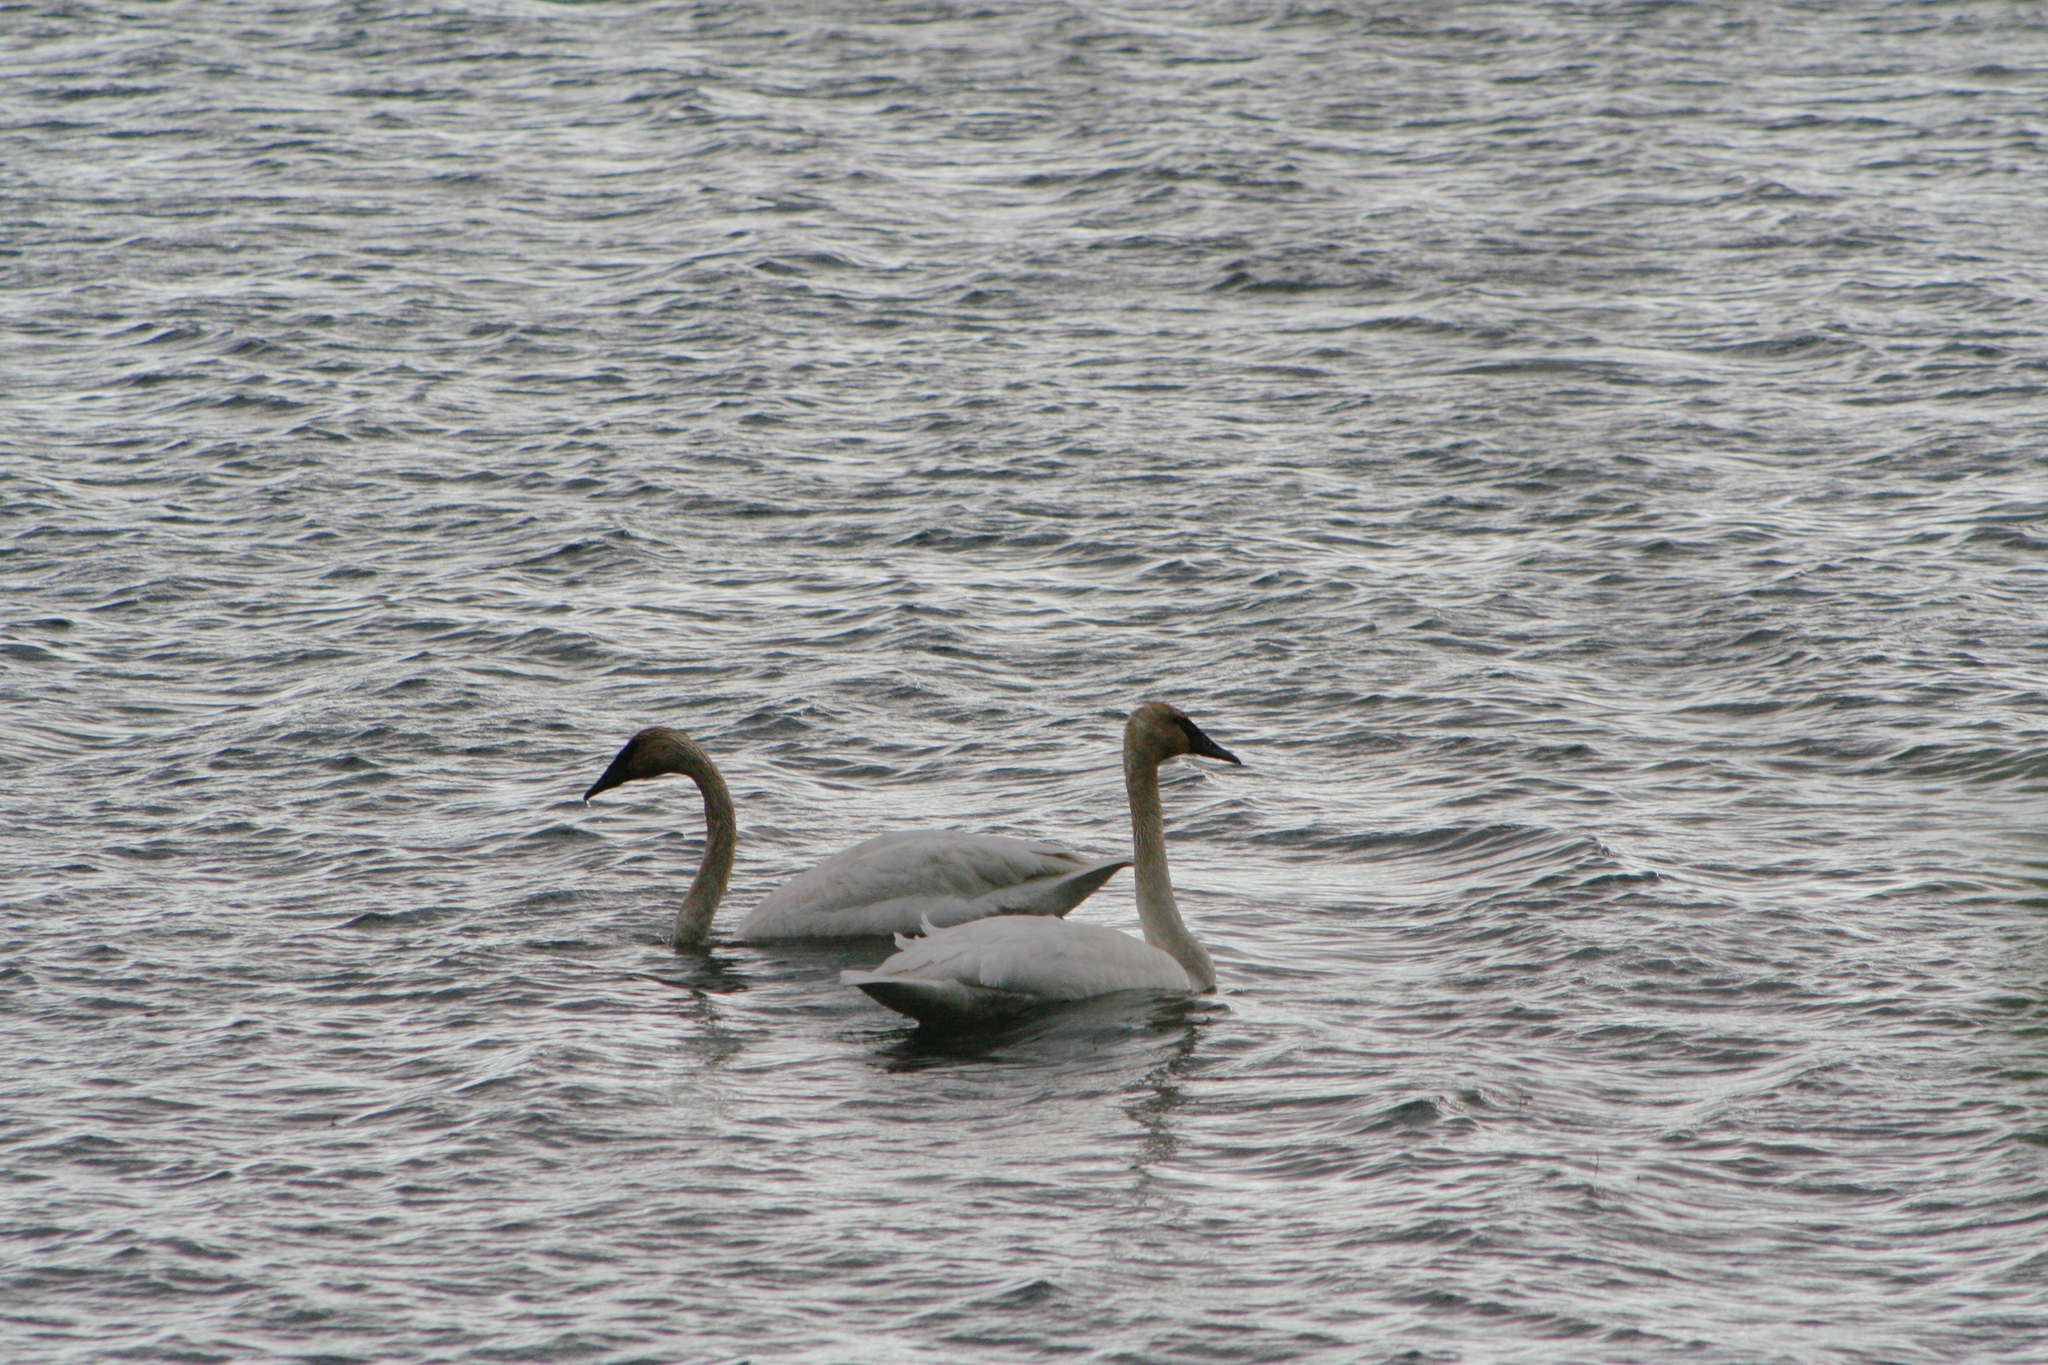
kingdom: Animalia
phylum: Chordata
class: Aves
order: Anseriformes
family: Anatidae
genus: Cygnus
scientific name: Cygnus buccinator
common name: Trumpeter swan
